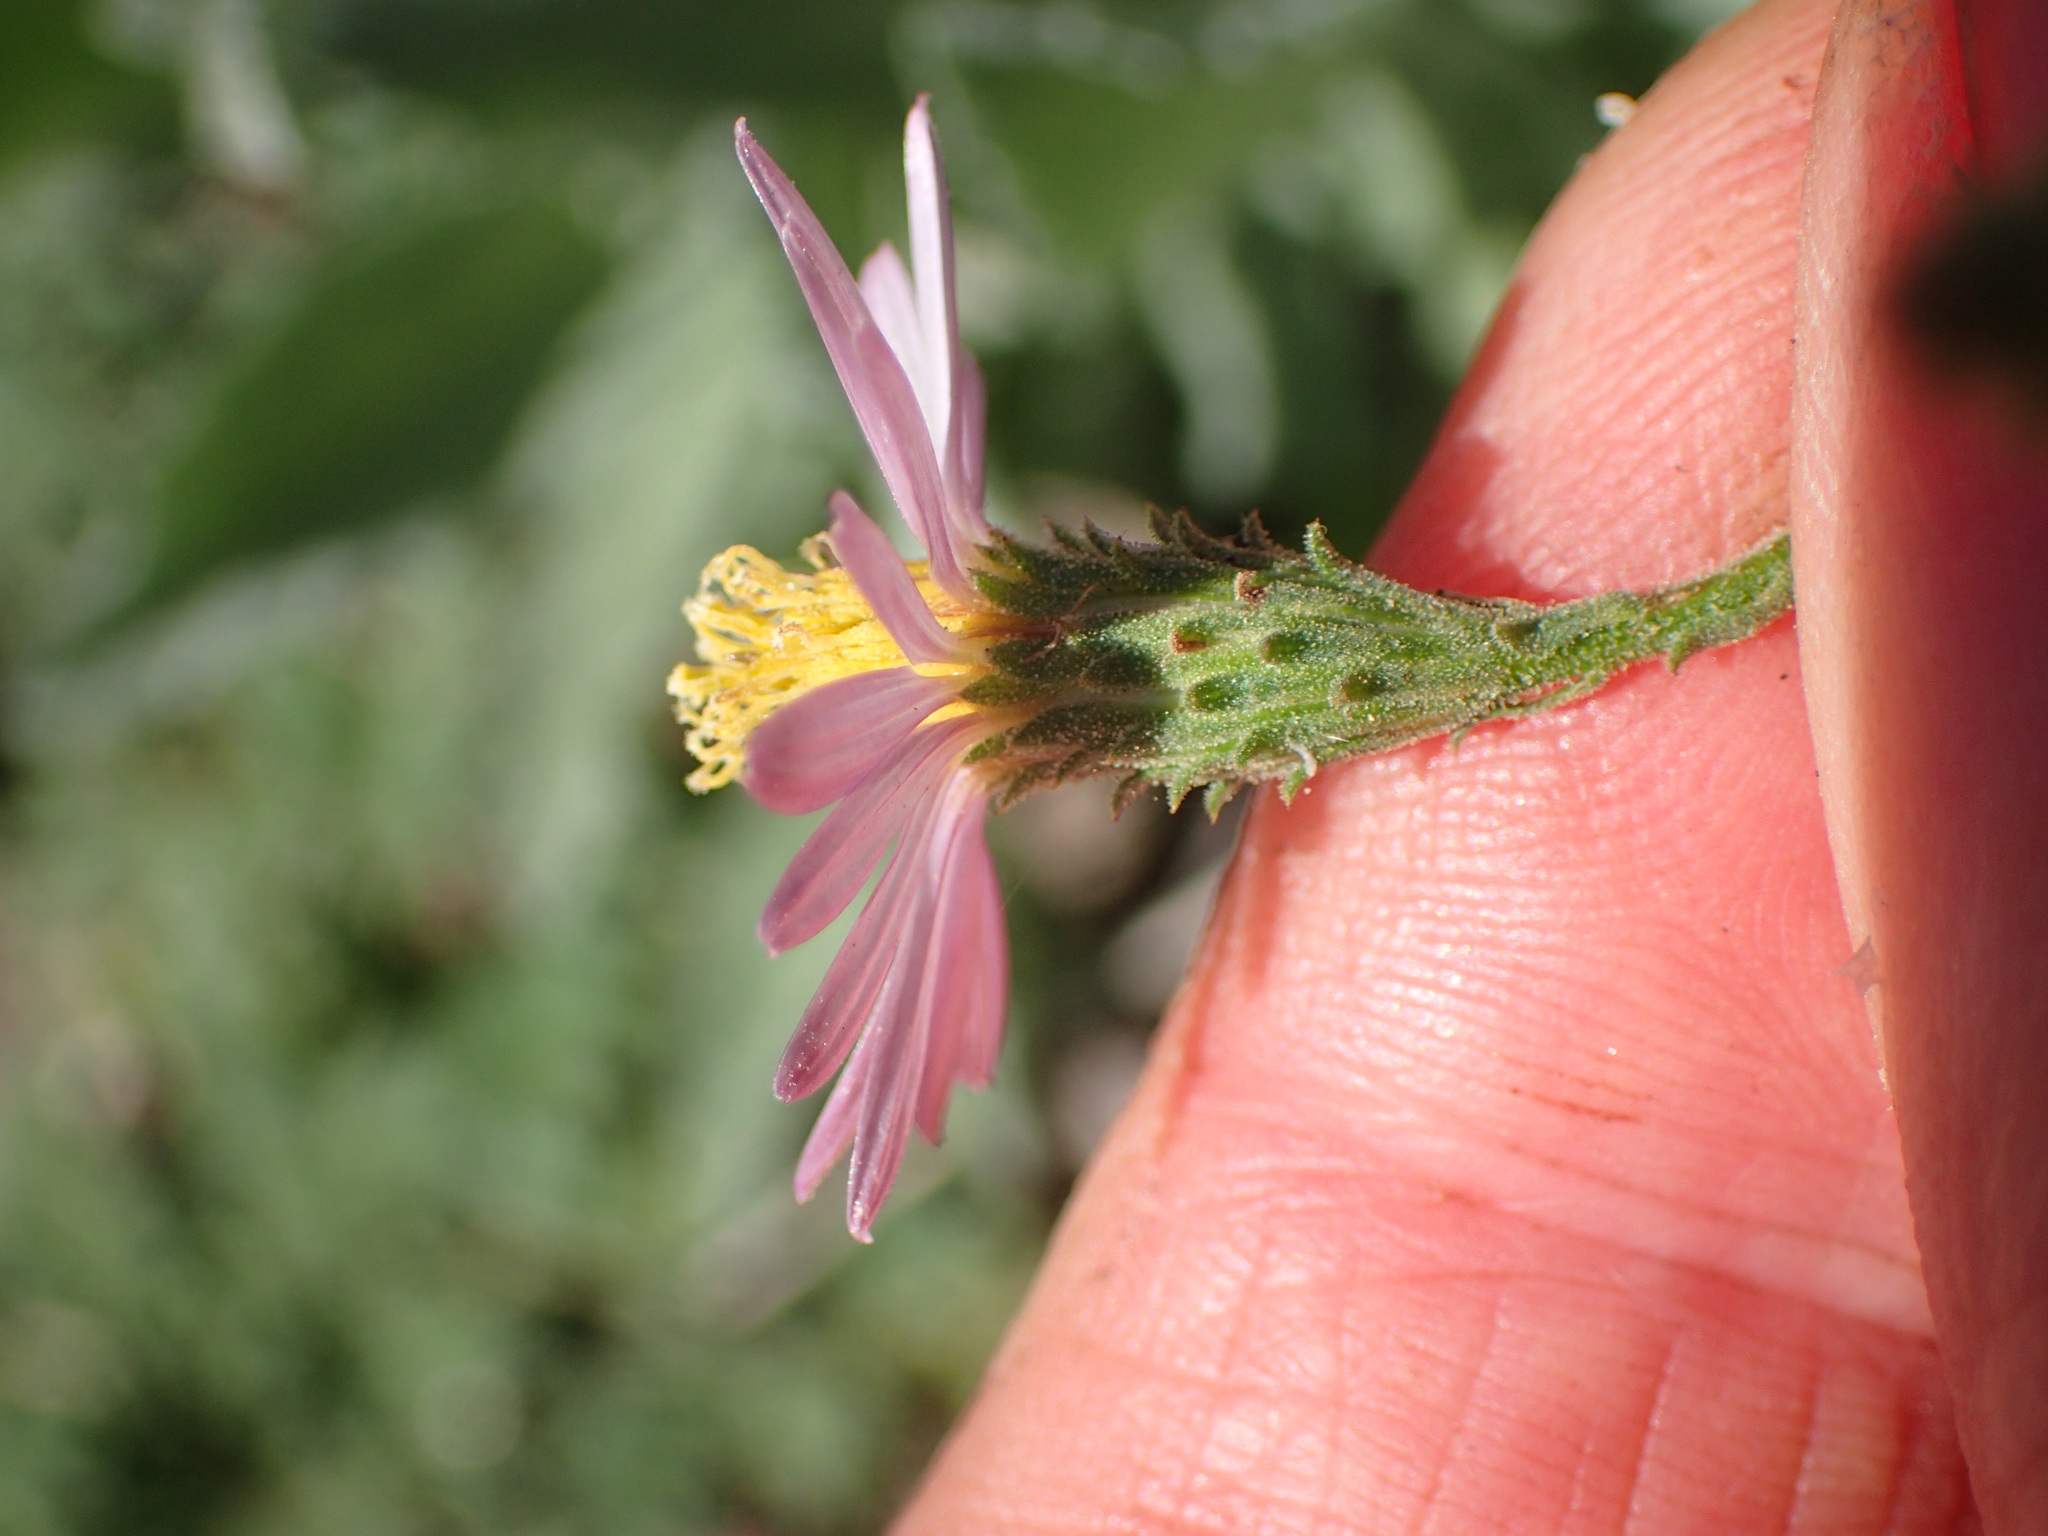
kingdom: Plantae
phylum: Tracheophyta
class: Magnoliopsida
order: Asterales
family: Asteraceae
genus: Corethrogyne
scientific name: Corethrogyne filaginifolia
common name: Sand-aster
